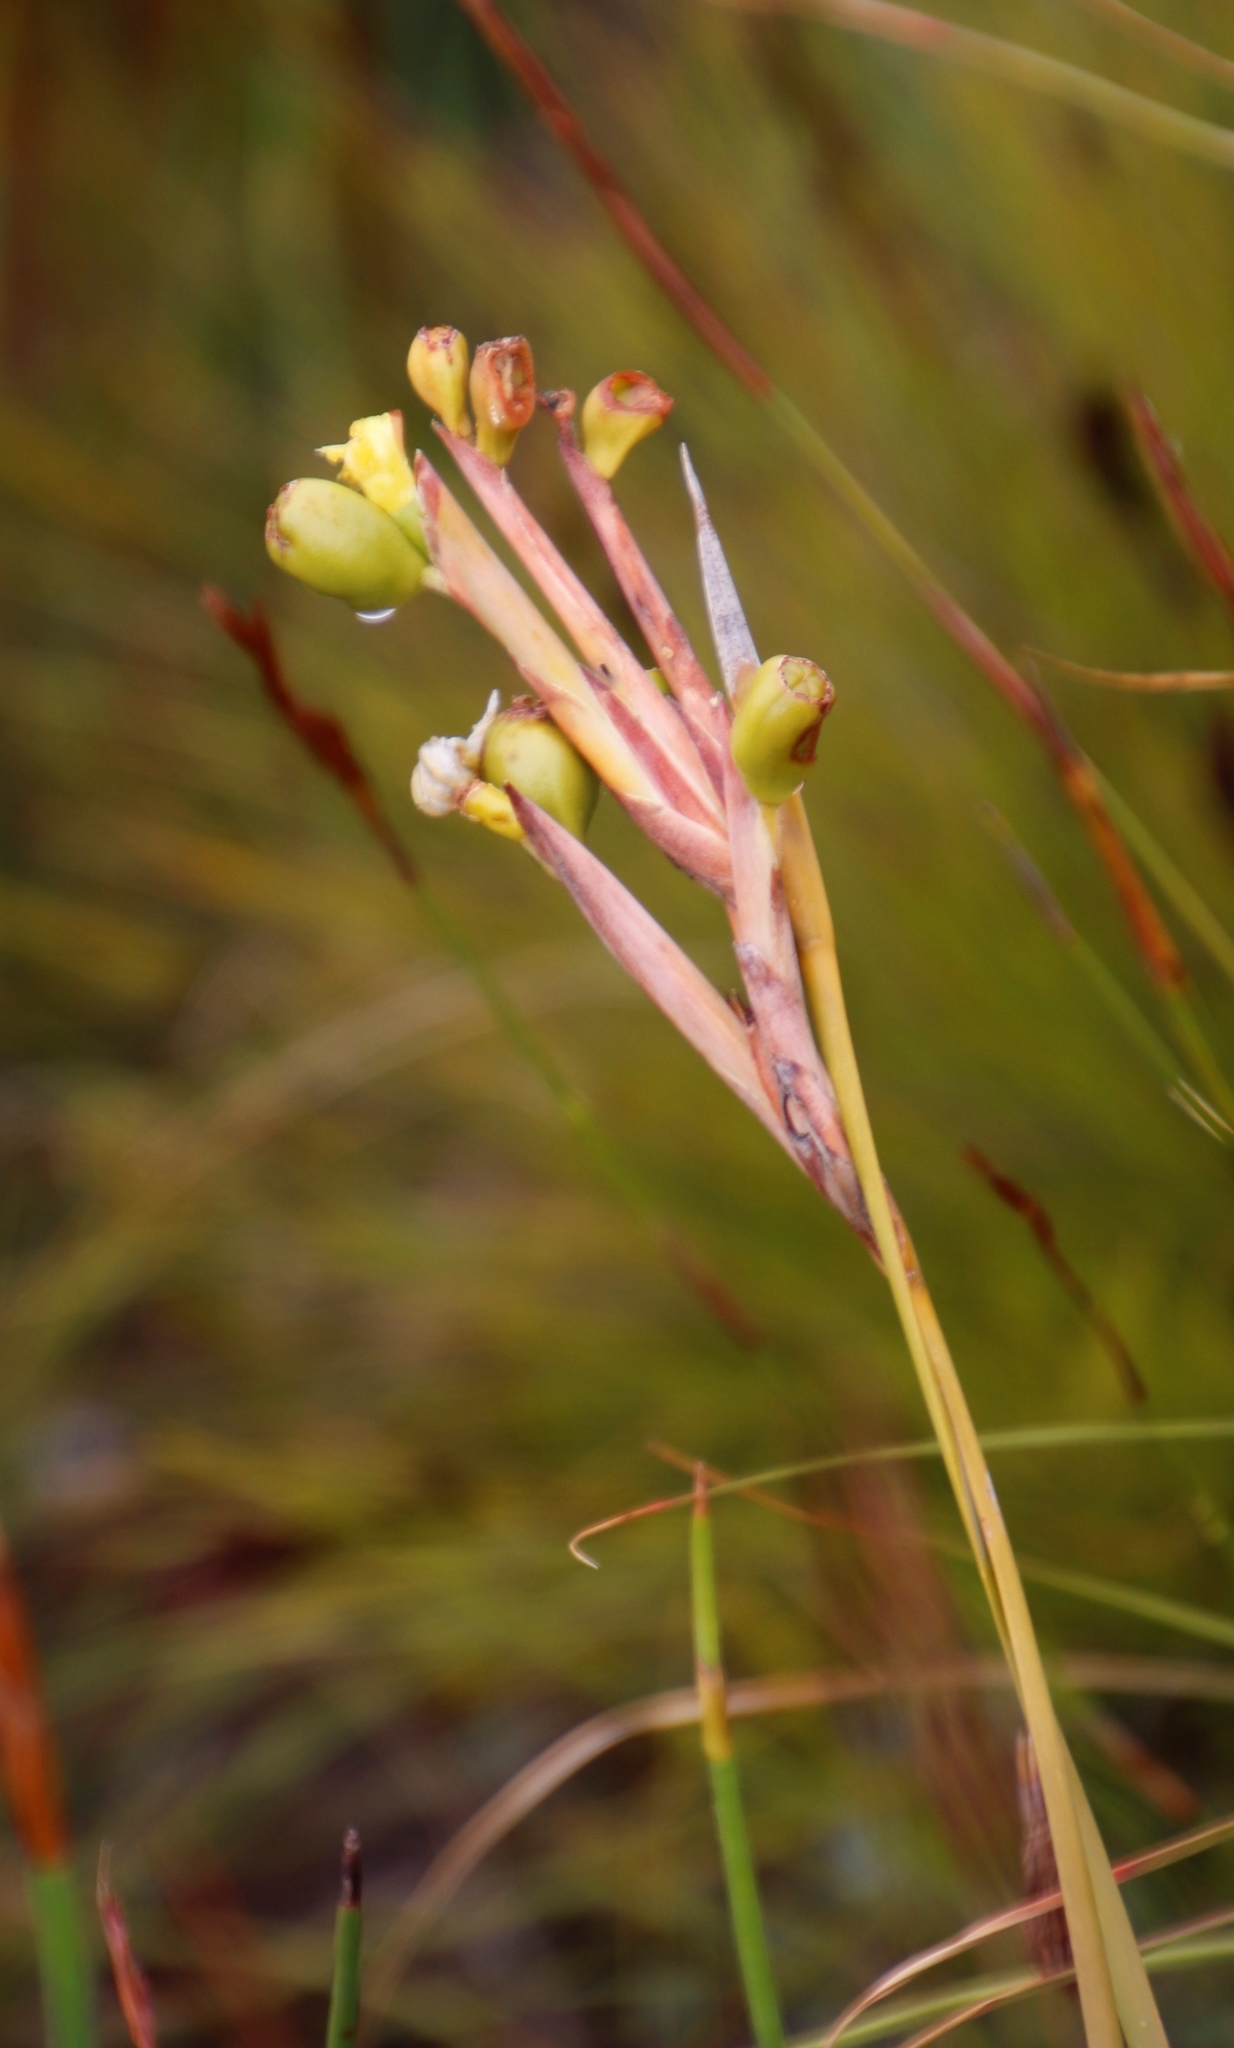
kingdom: Plantae
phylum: Tracheophyta
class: Liliopsida
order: Asparagales
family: Iridaceae
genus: Bobartia
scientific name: Bobartia gladiata
